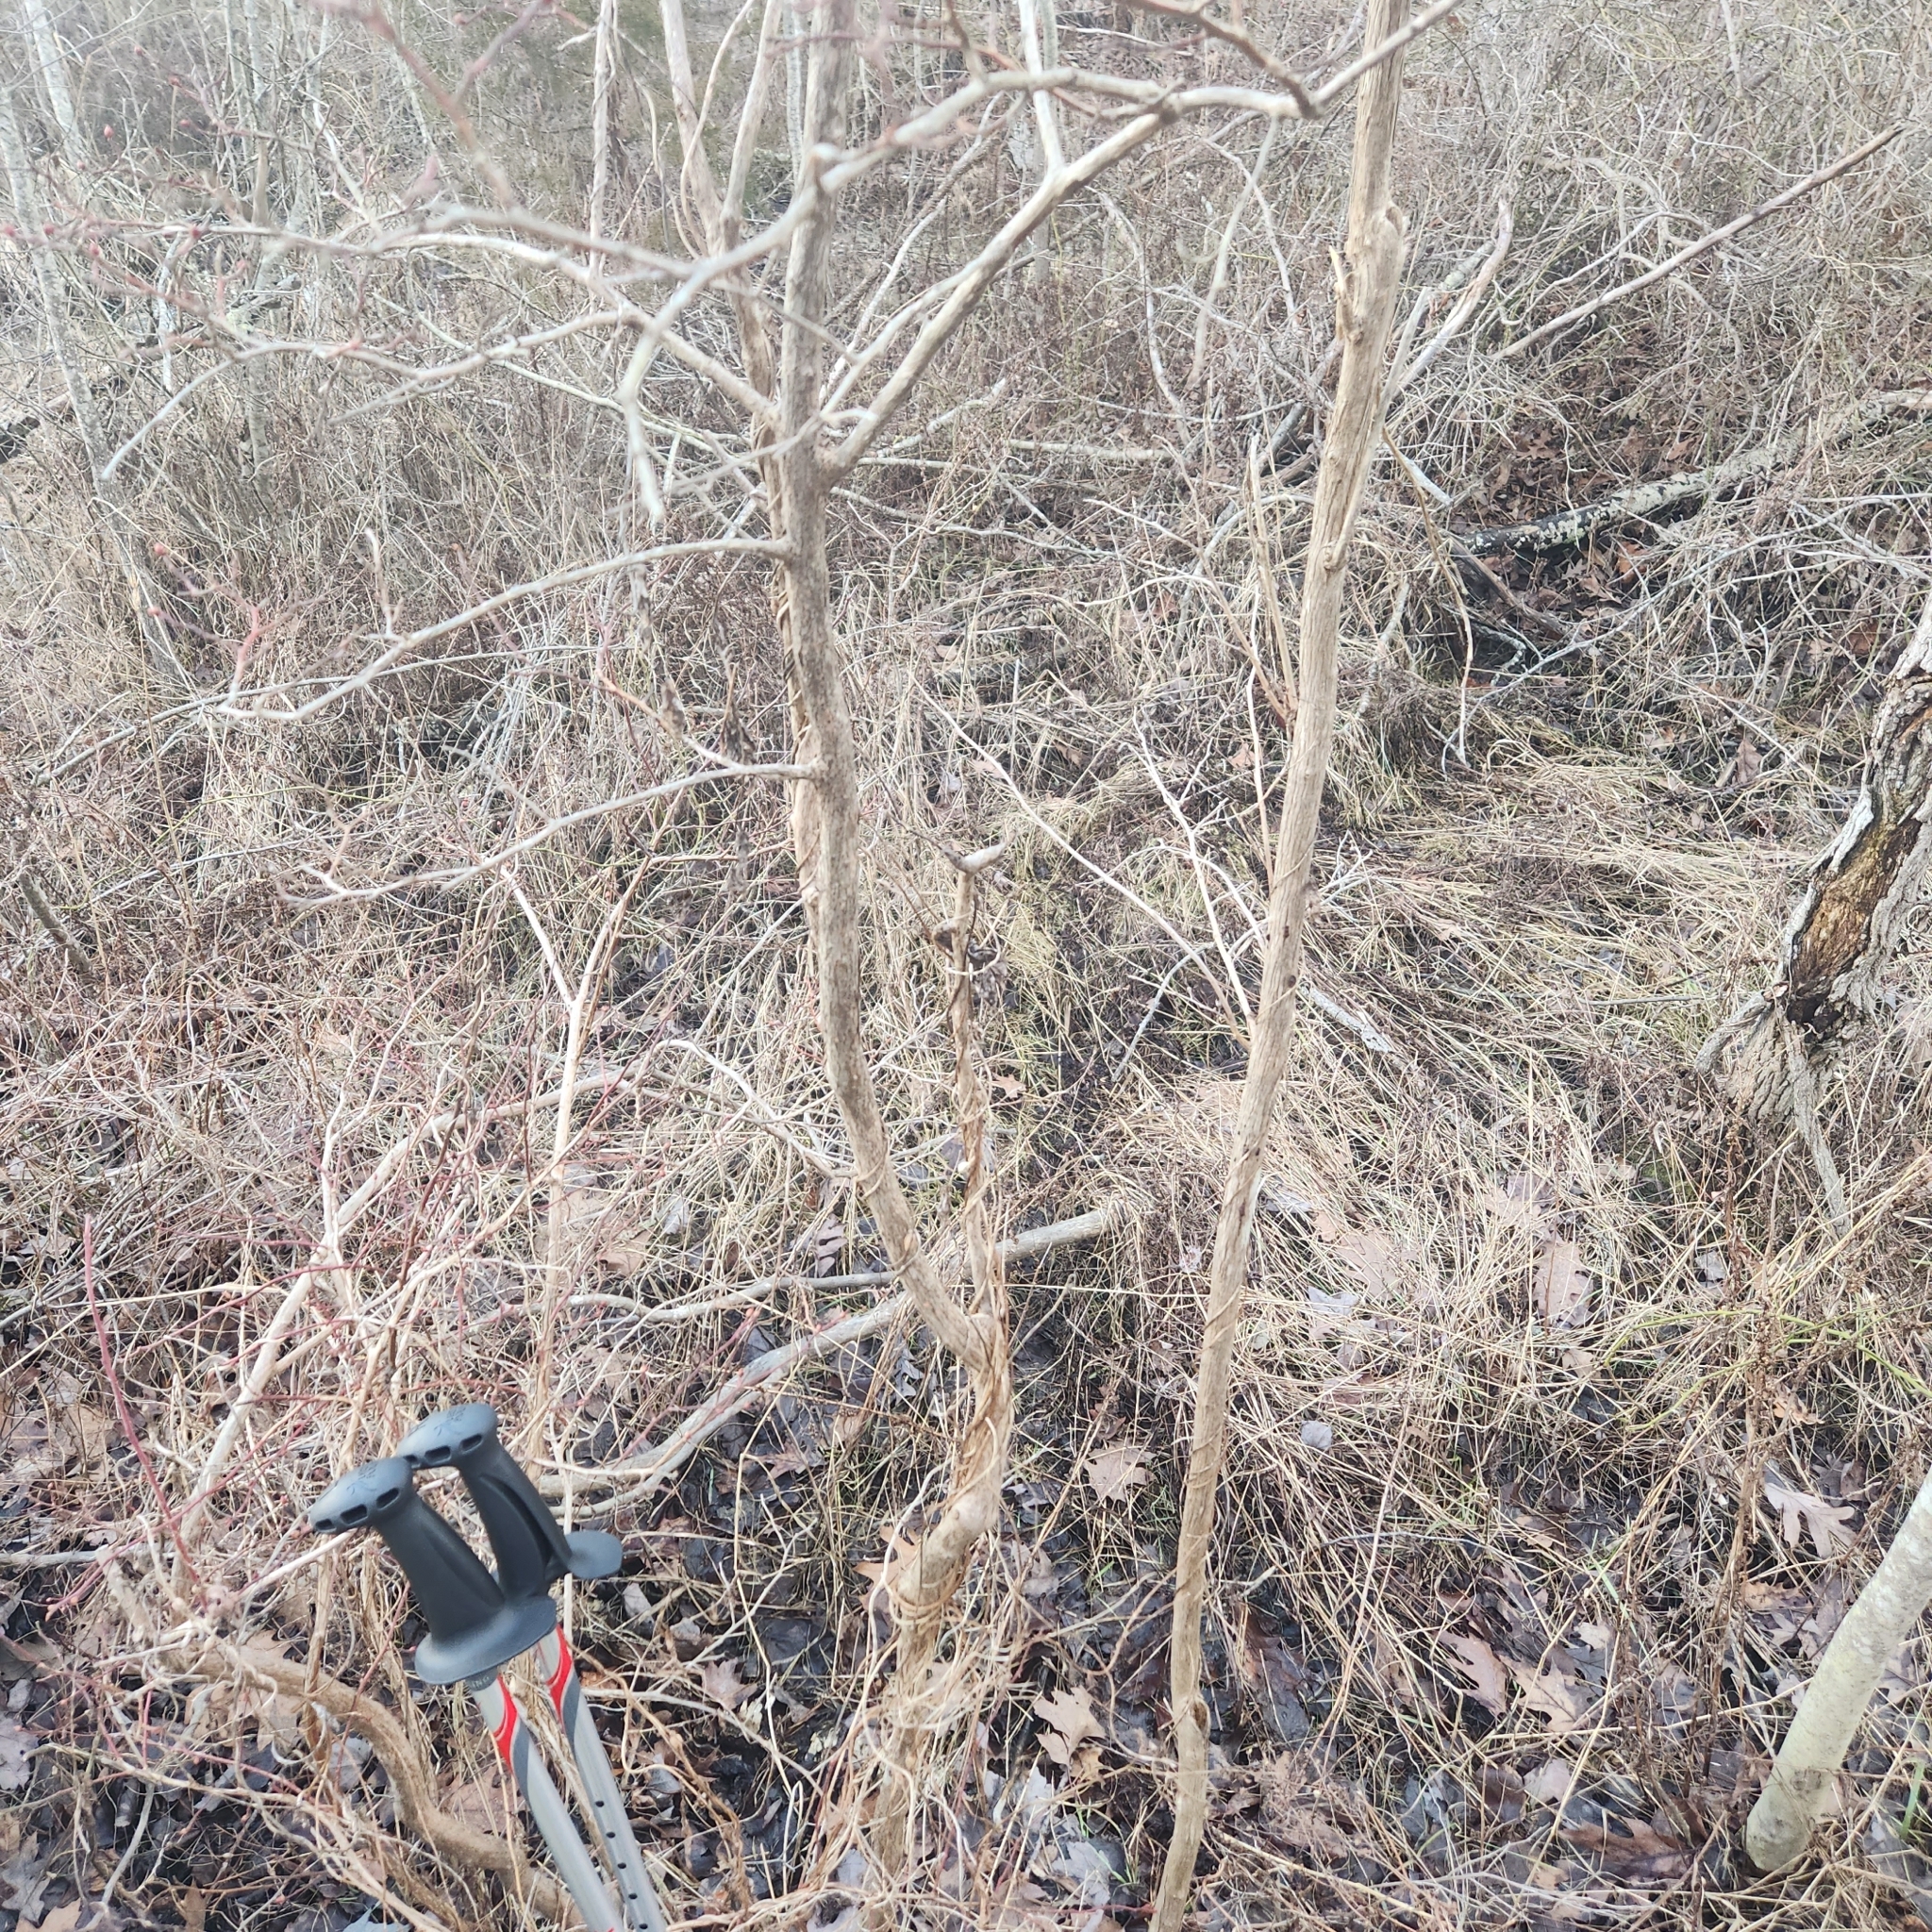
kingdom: Plantae
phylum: Tracheophyta
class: Magnoliopsida
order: Ericales
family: Ericaceae
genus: Vaccinium
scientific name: Vaccinium corymbosum
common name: Blueberry
